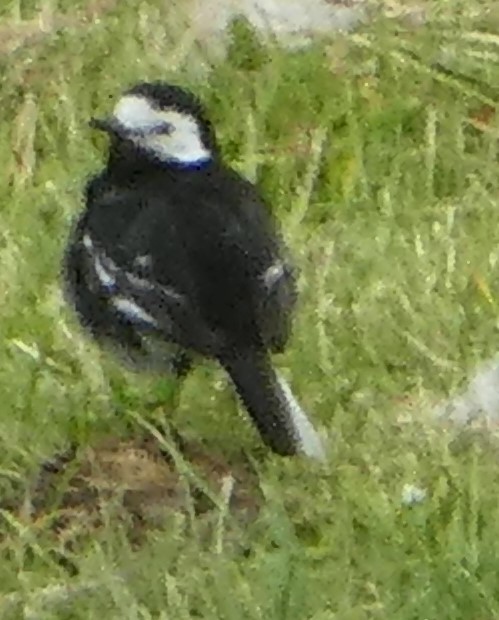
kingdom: Animalia
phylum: Chordata
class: Aves
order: Passeriformes
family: Motacillidae
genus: Motacilla
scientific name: Motacilla alba
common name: White wagtail
